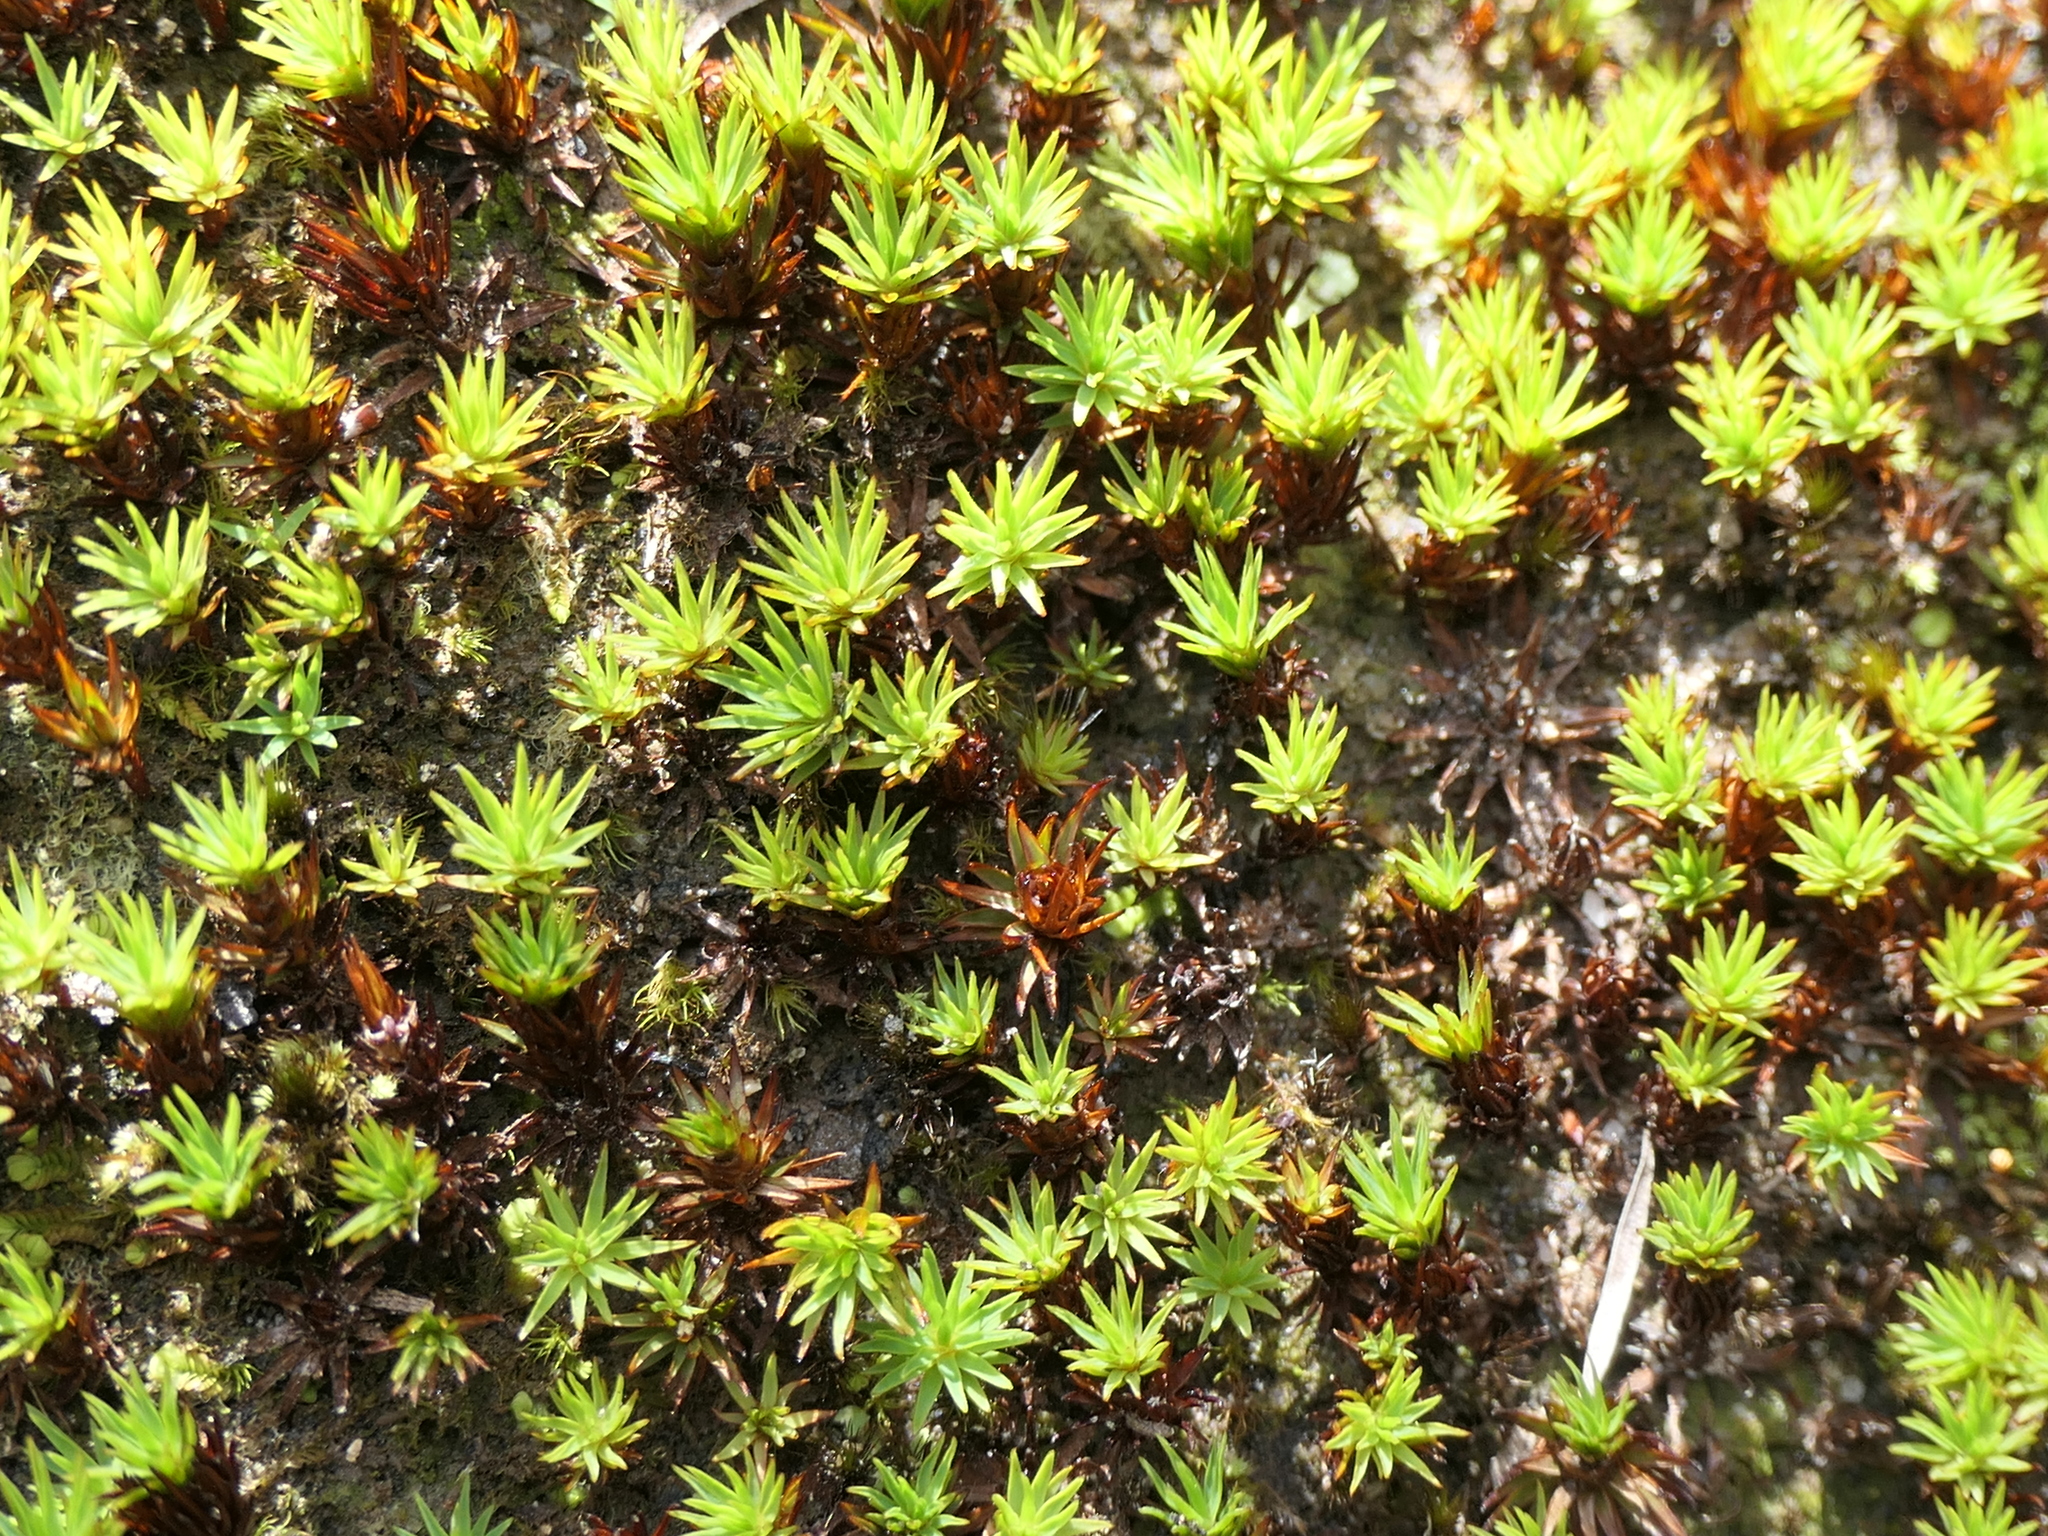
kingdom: Plantae
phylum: Bryophyta
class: Polytrichopsida
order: Polytrichales
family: Polytrichaceae
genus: Dawsonia
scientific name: Dawsonia longiseta
